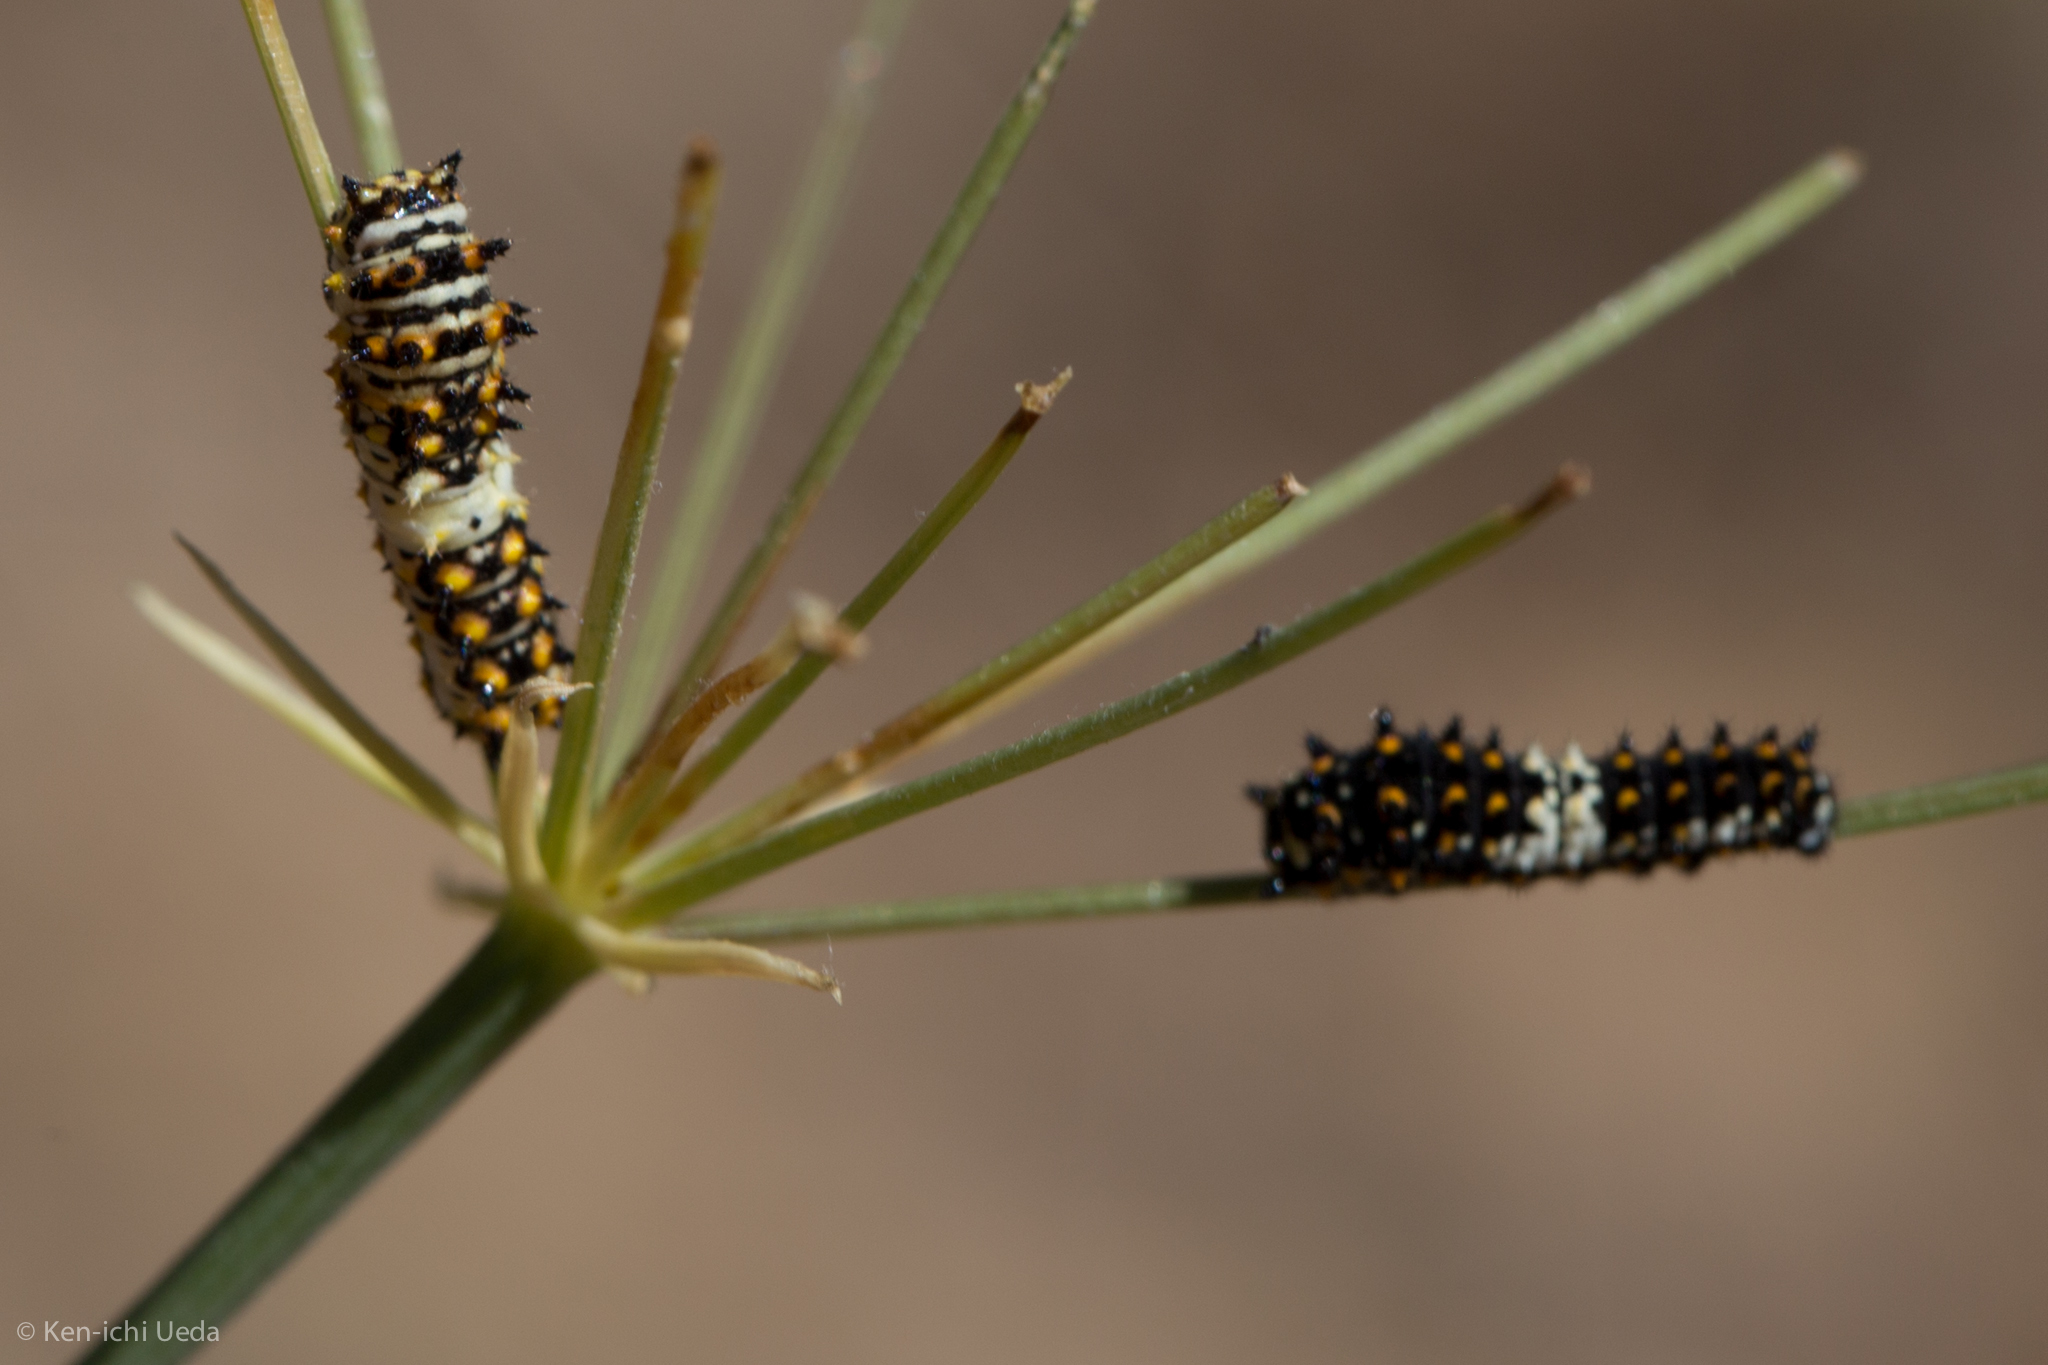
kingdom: Animalia
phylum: Arthropoda
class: Insecta
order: Lepidoptera
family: Papilionidae
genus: Papilio
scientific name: Papilio zelicaon
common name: Anise swallowtail
